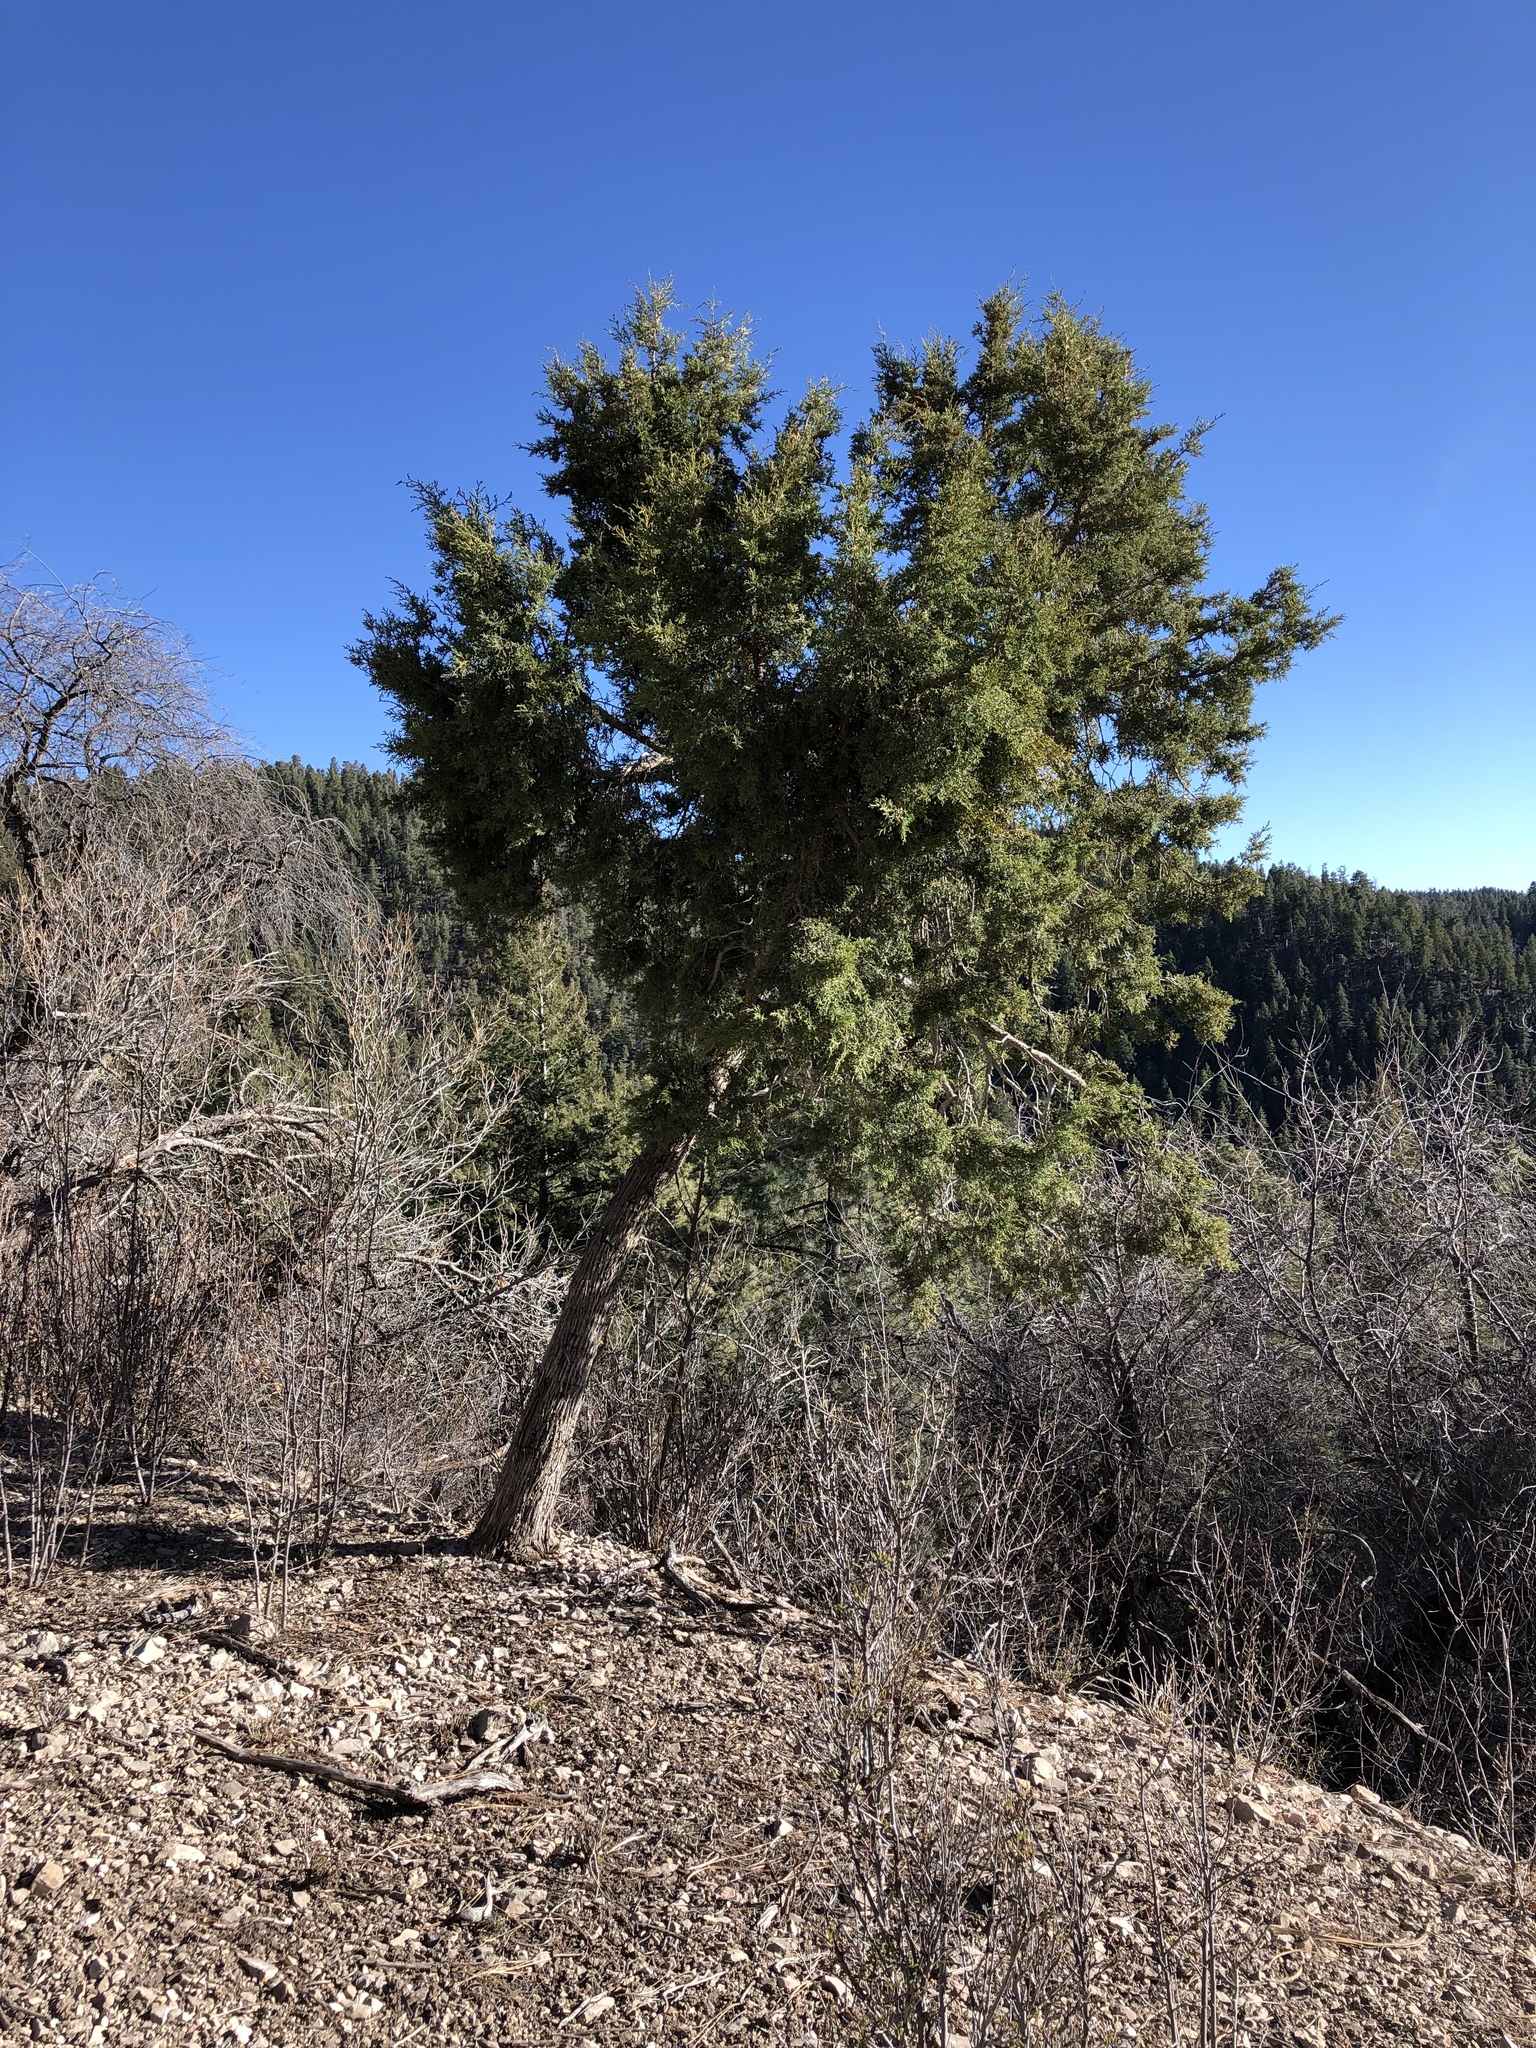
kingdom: Plantae
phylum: Tracheophyta
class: Pinopsida
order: Pinales
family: Cupressaceae
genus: Juniperus
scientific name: Juniperus monosperma
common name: One-seed juniper
